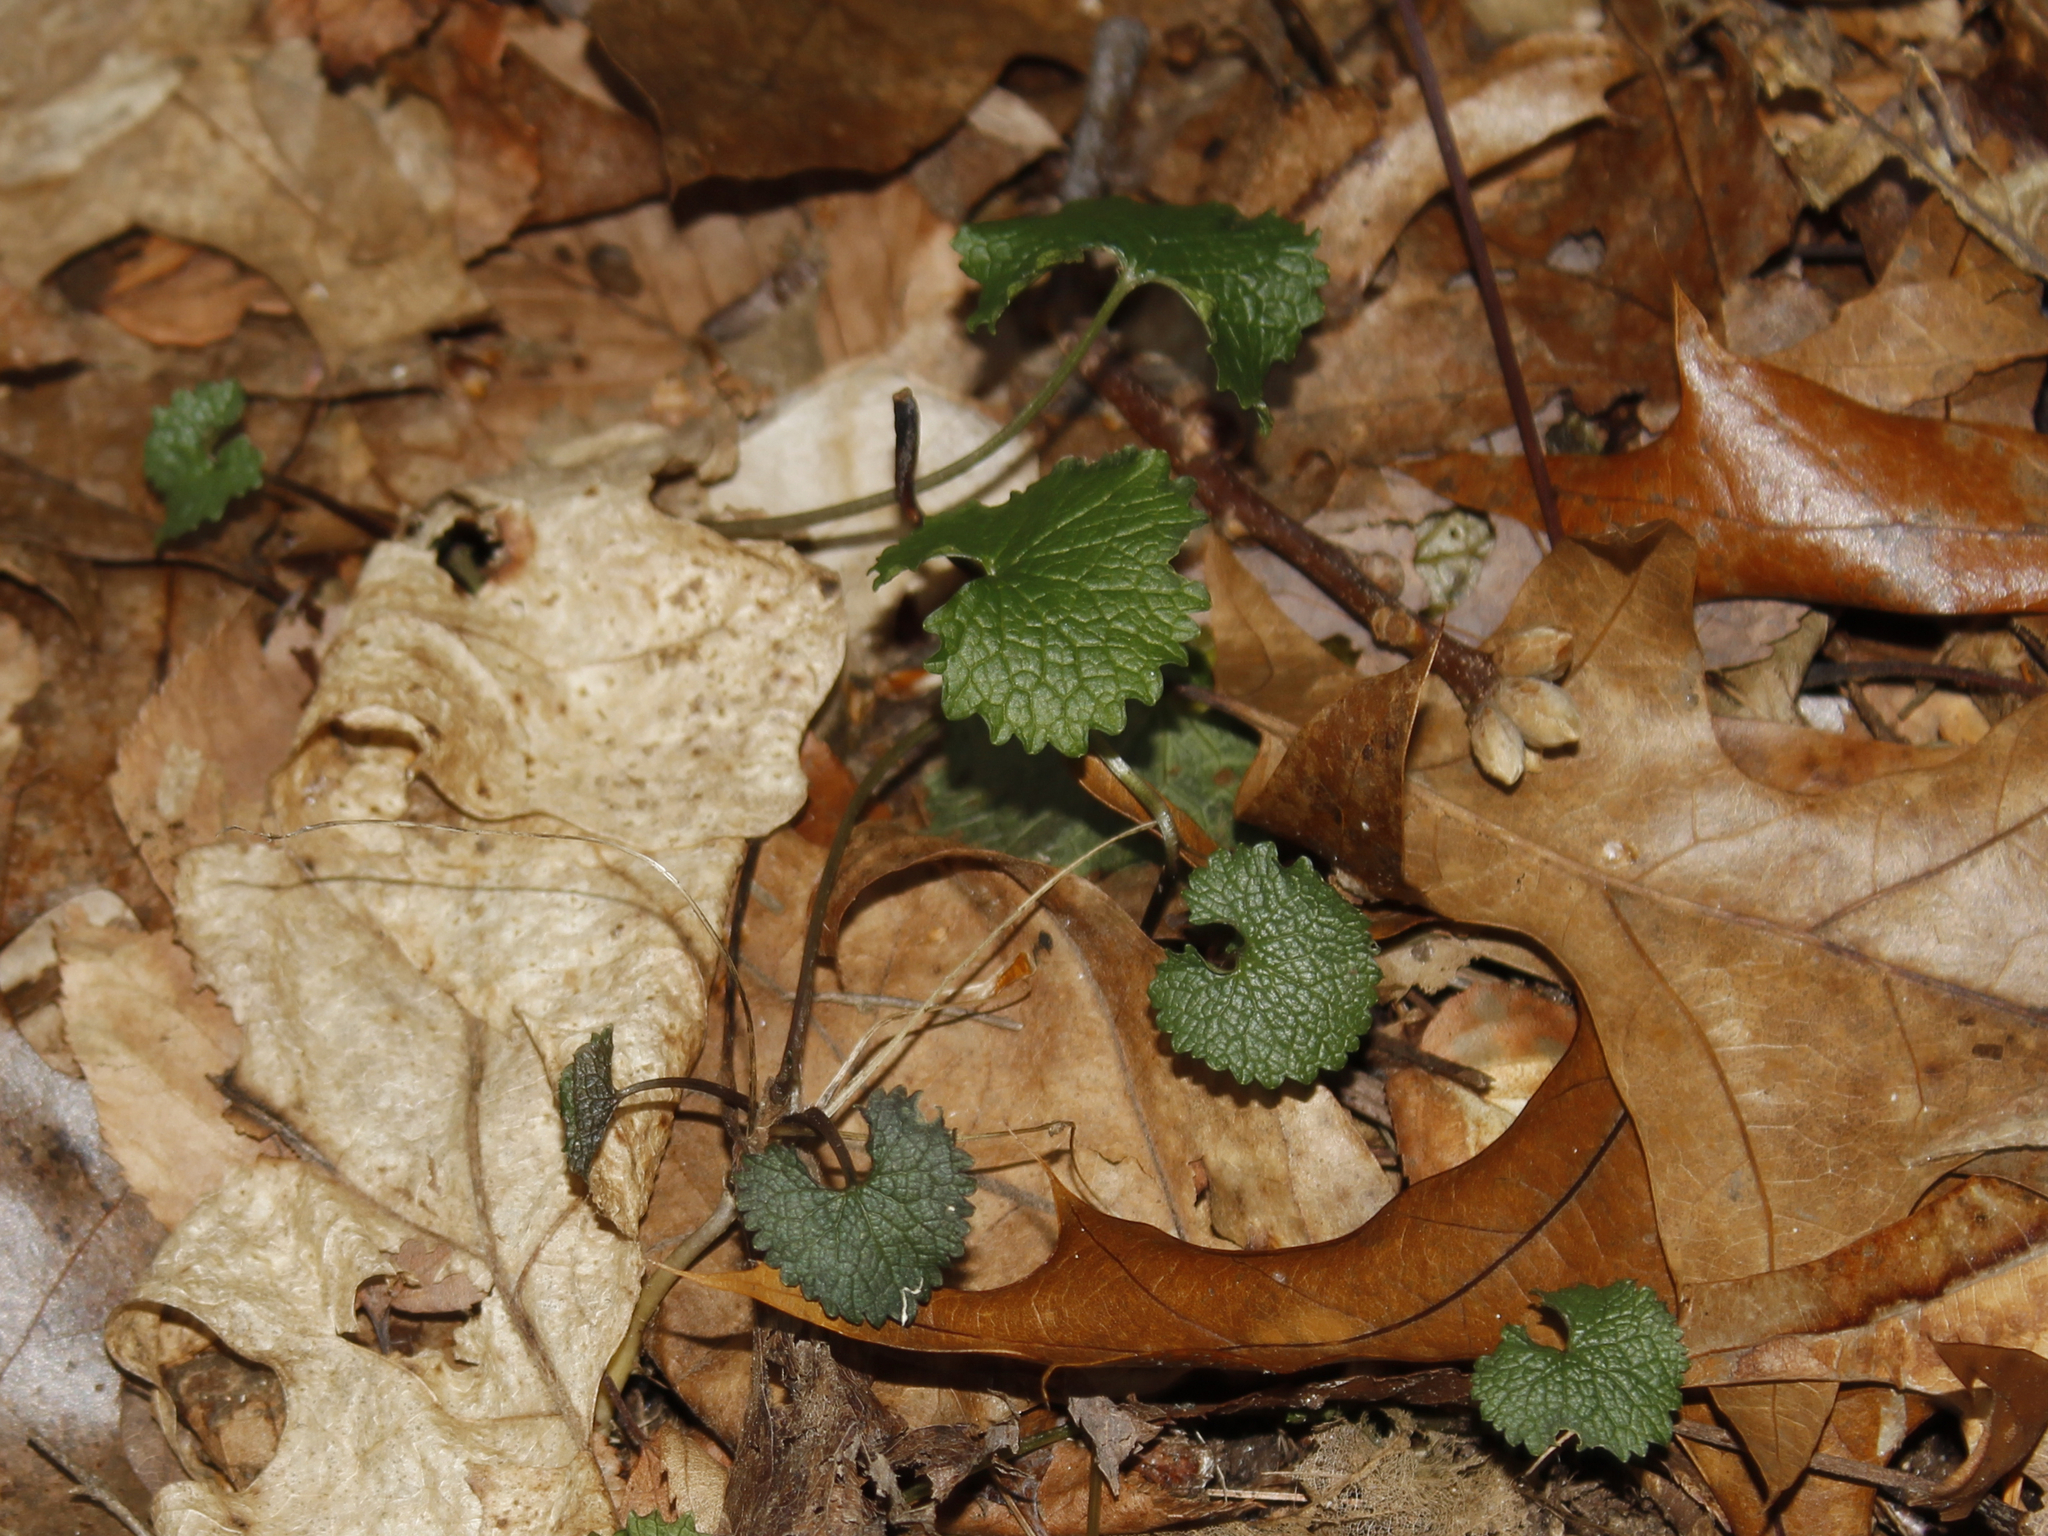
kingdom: Plantae
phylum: Tracheophyta
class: Magnoliopsida
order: Brassicales
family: Brassicaceae
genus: Alliaria
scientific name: Alliaria petiolata
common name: Garlic mustard
